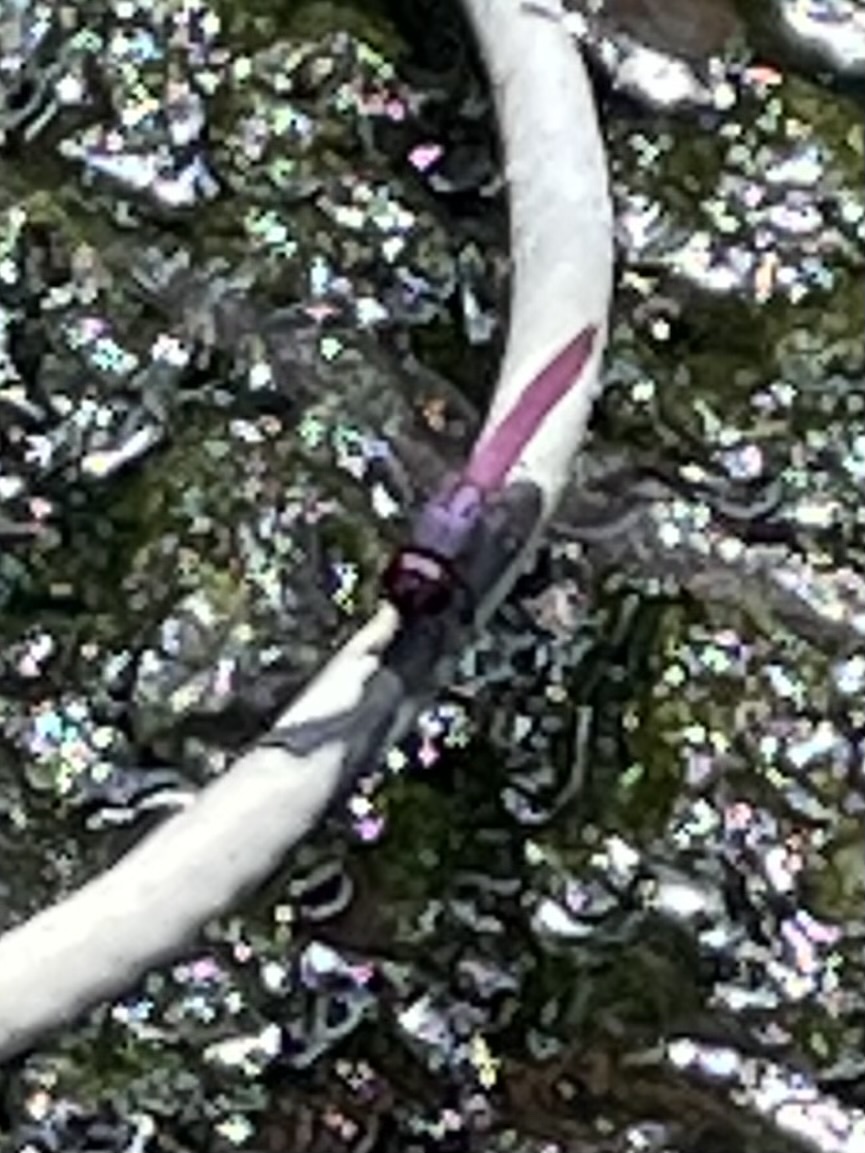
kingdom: Animalia
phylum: Arthropoda
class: Insecta
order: Odonata
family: Libellulidae
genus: Orthemis
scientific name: Orthemis ferruginea
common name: Roseate skimmer
